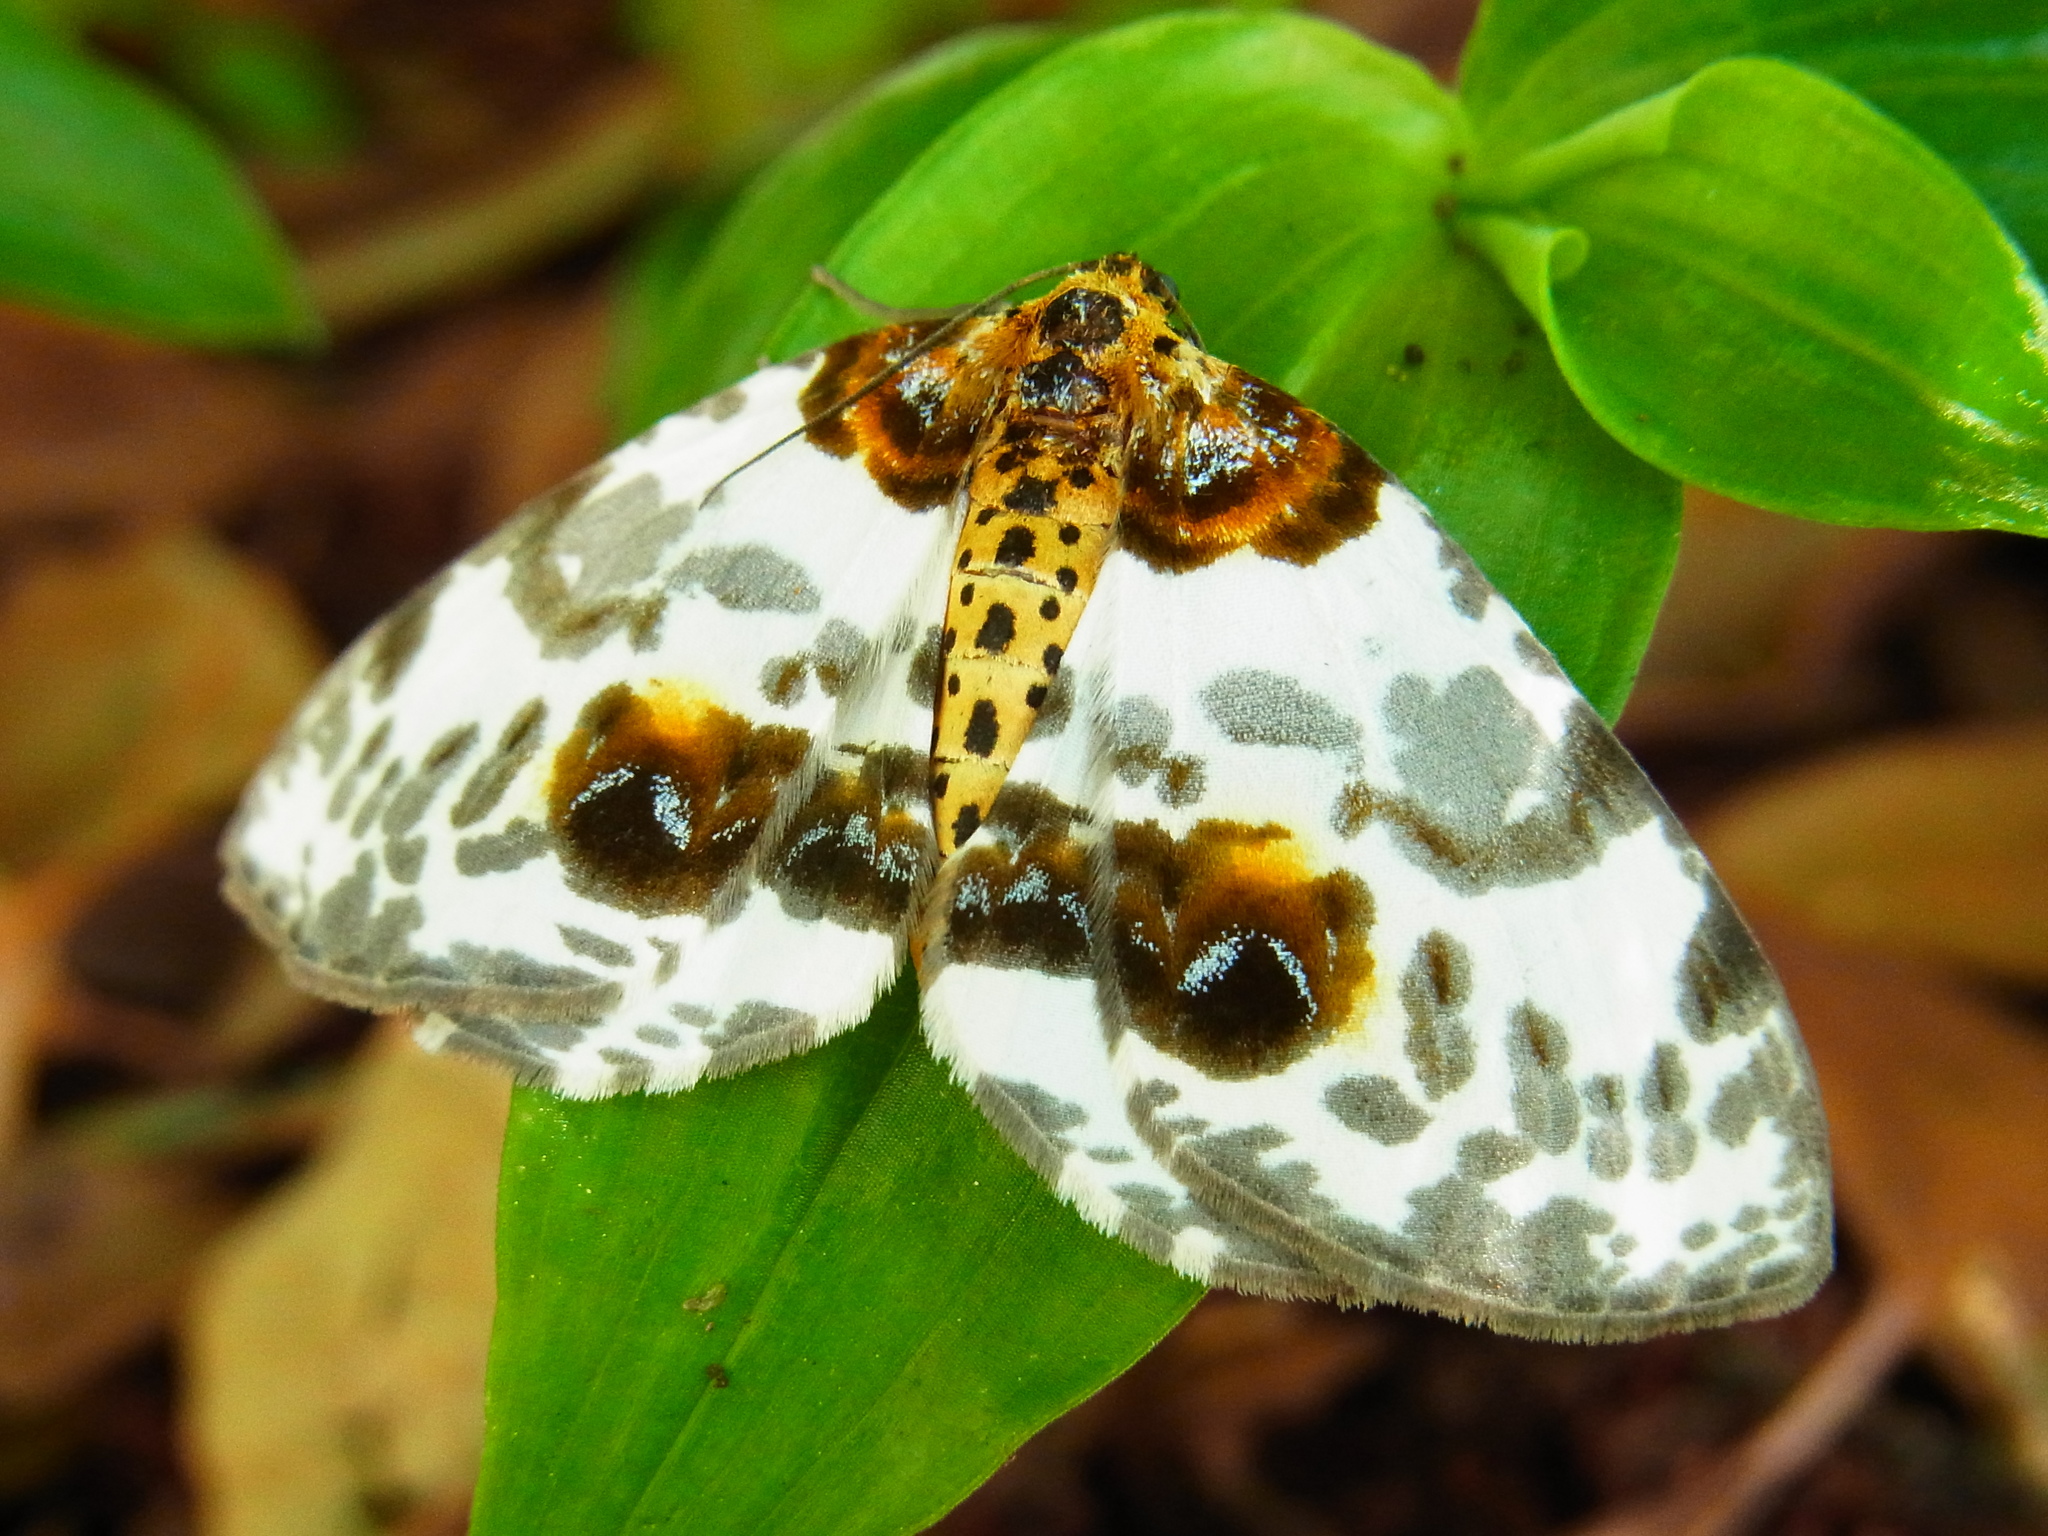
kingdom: Animalia
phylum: Arthropoda
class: Insecta
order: Lepidoptera
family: Geometridae
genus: Abraxas
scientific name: Abraxas miranda
